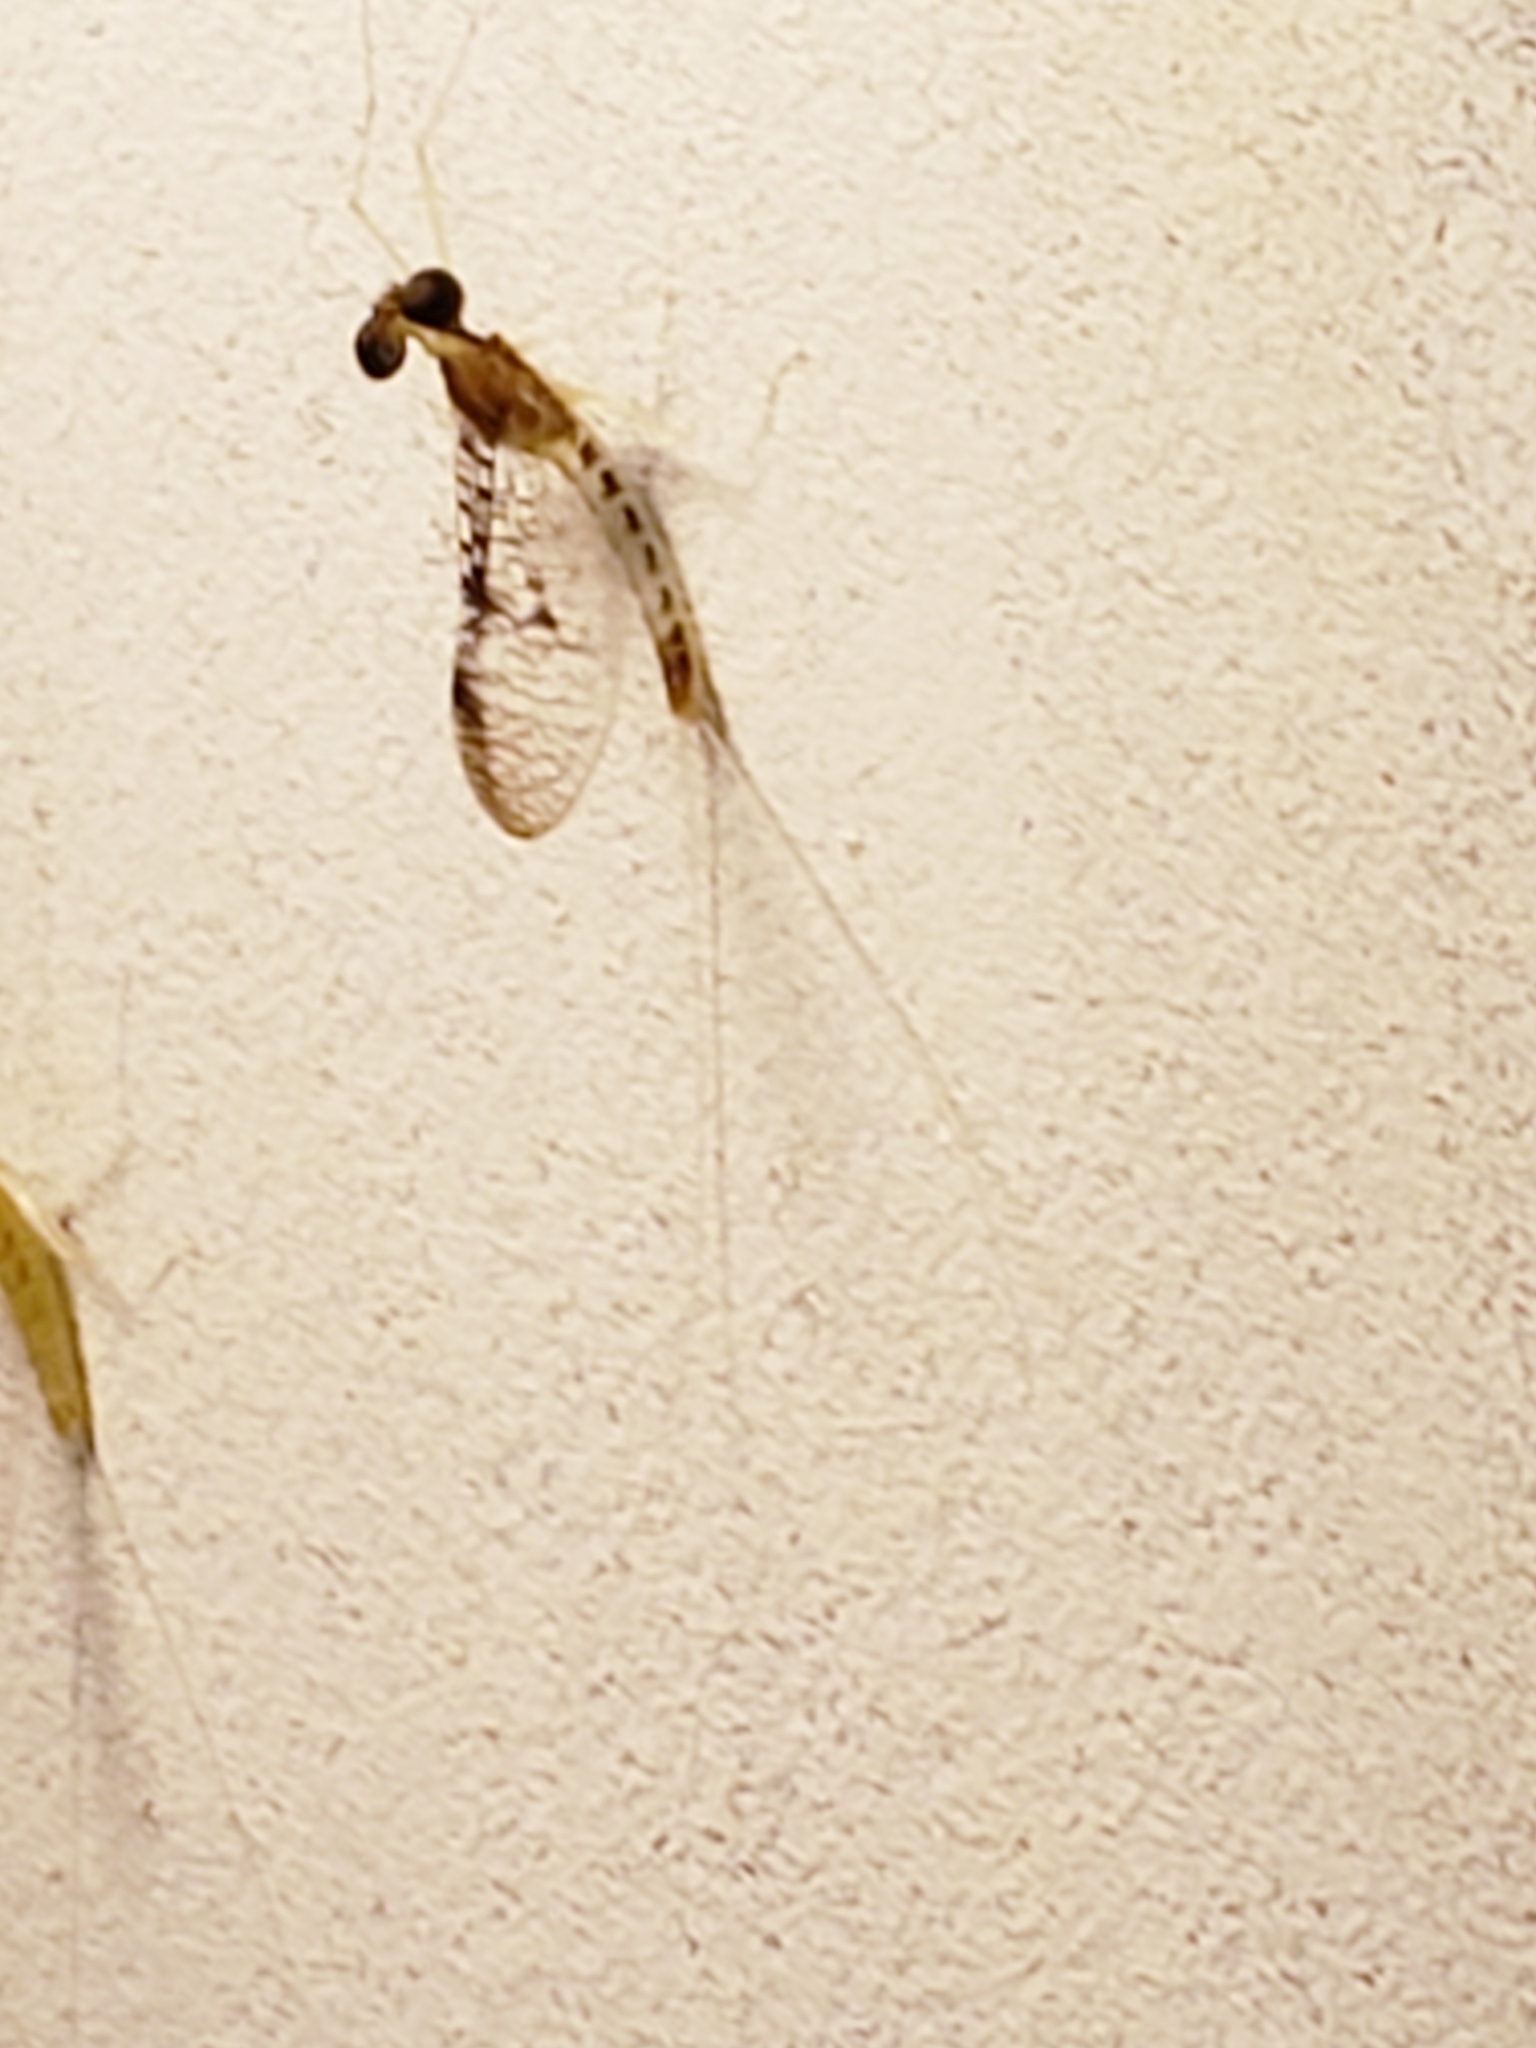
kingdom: Animalia
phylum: Arthropoda
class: Insecta
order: Ephemeroptera
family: Heptageniidae
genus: Leucrocuta
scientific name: Leucrocuta minerva
